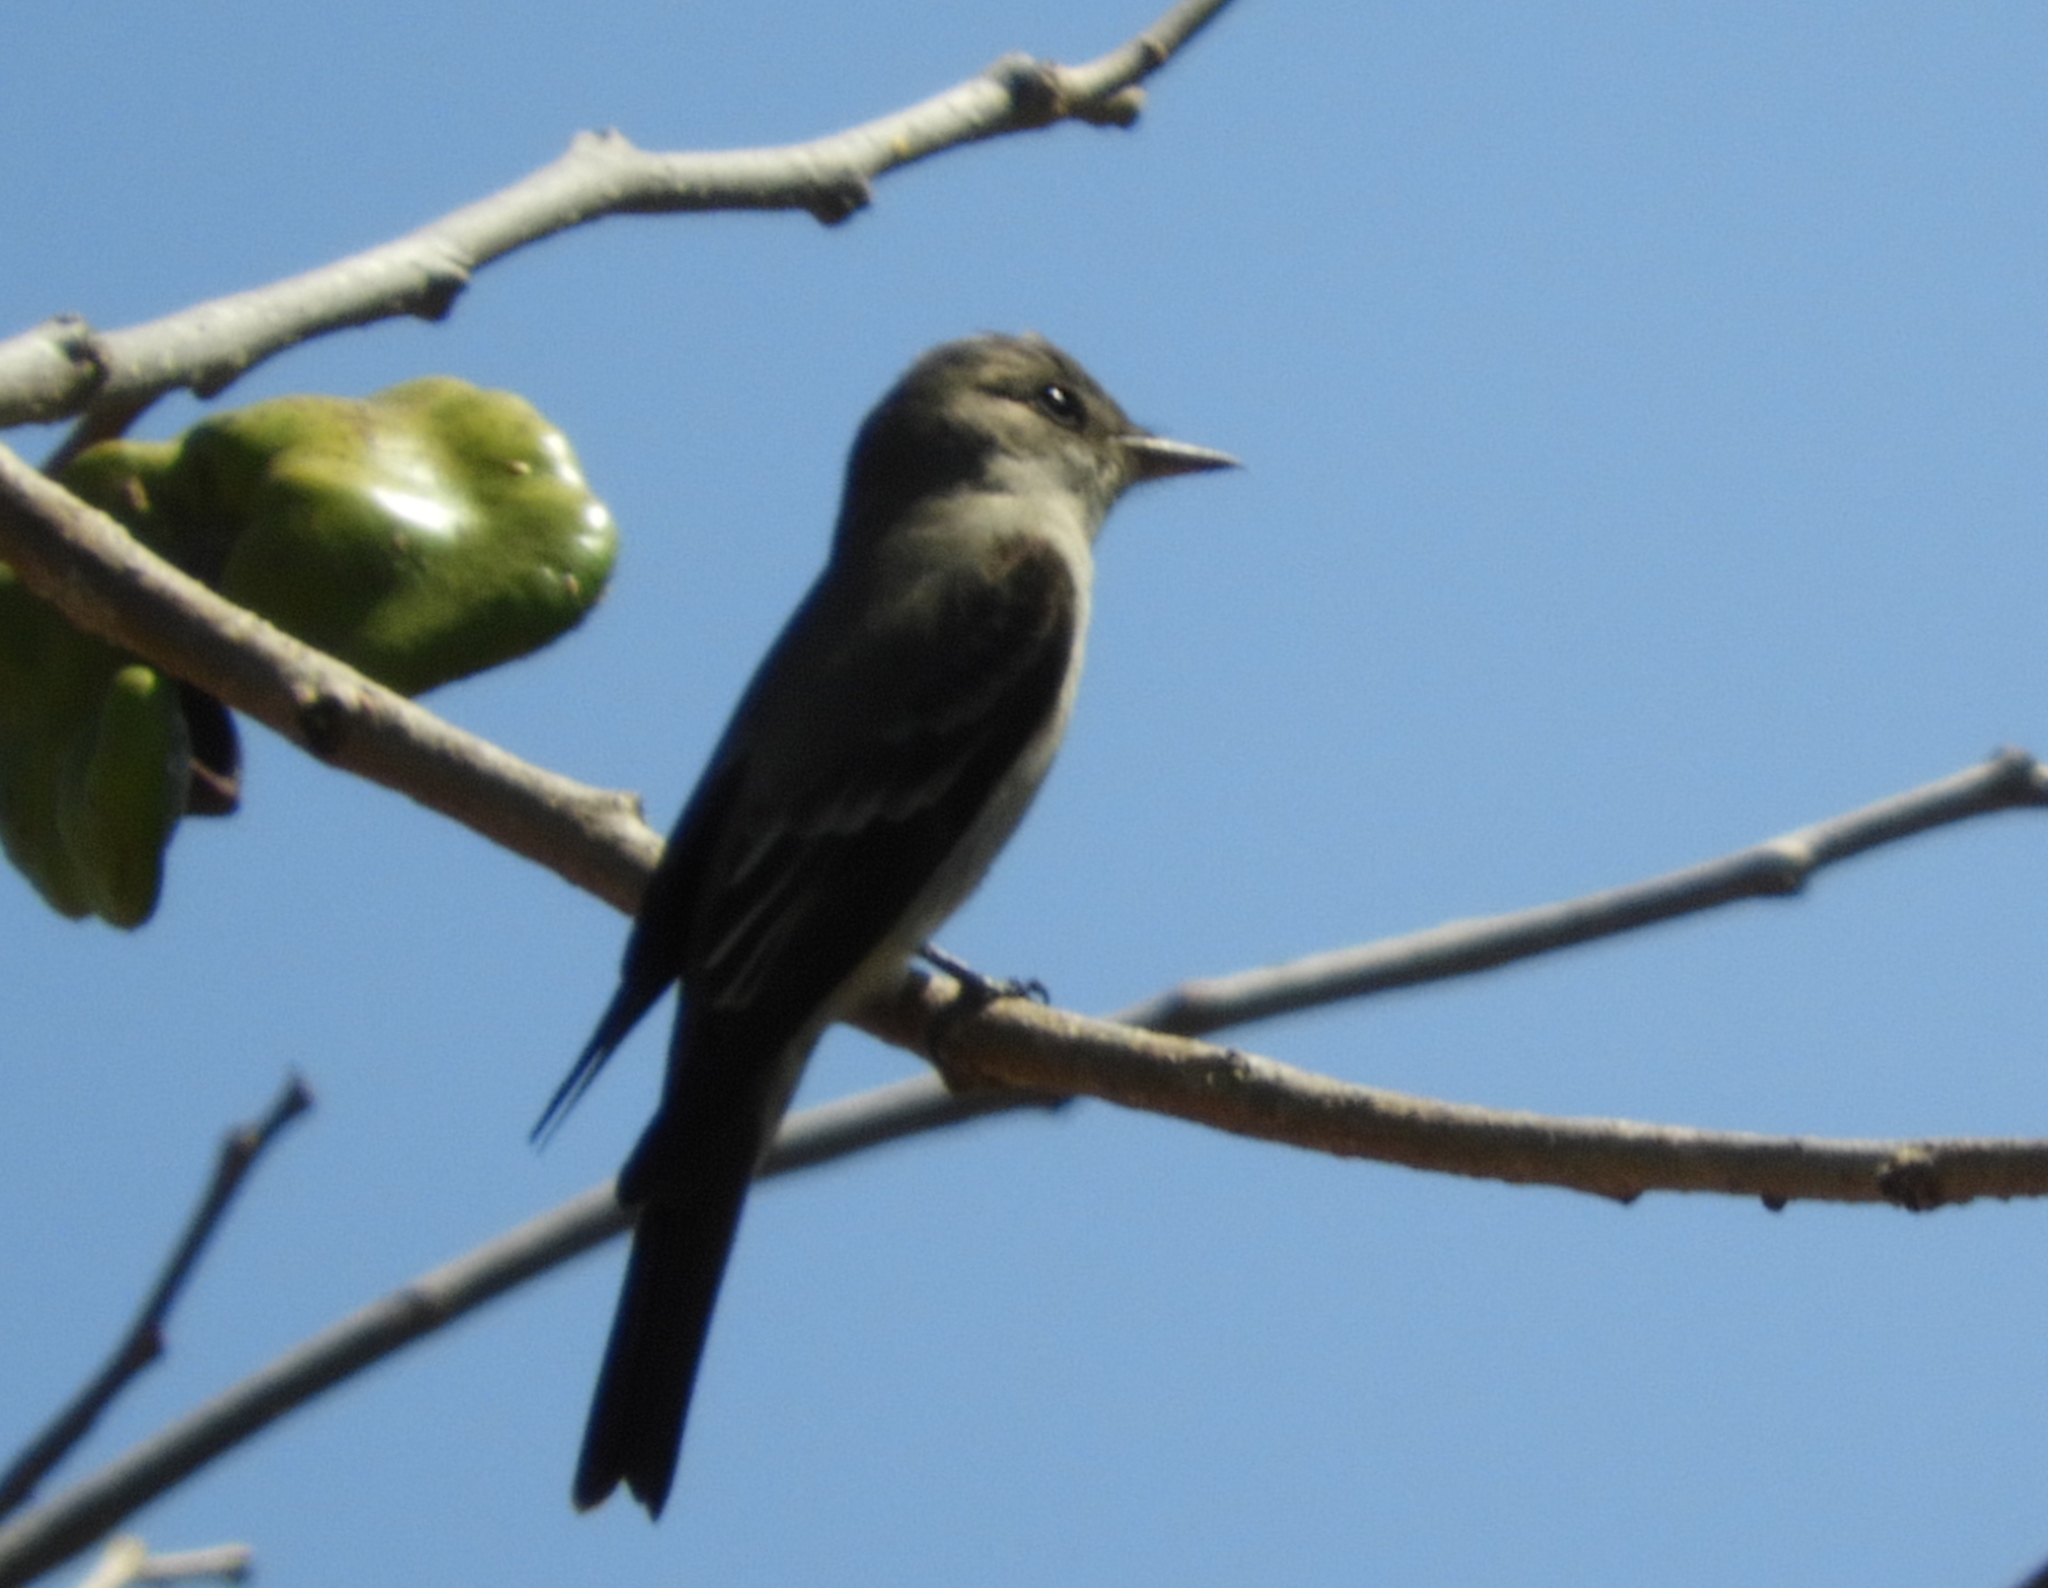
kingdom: Animalia
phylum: Chordata
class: Aves
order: Passeriformes
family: Tyrannidae
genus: Contopus
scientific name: Contopus
